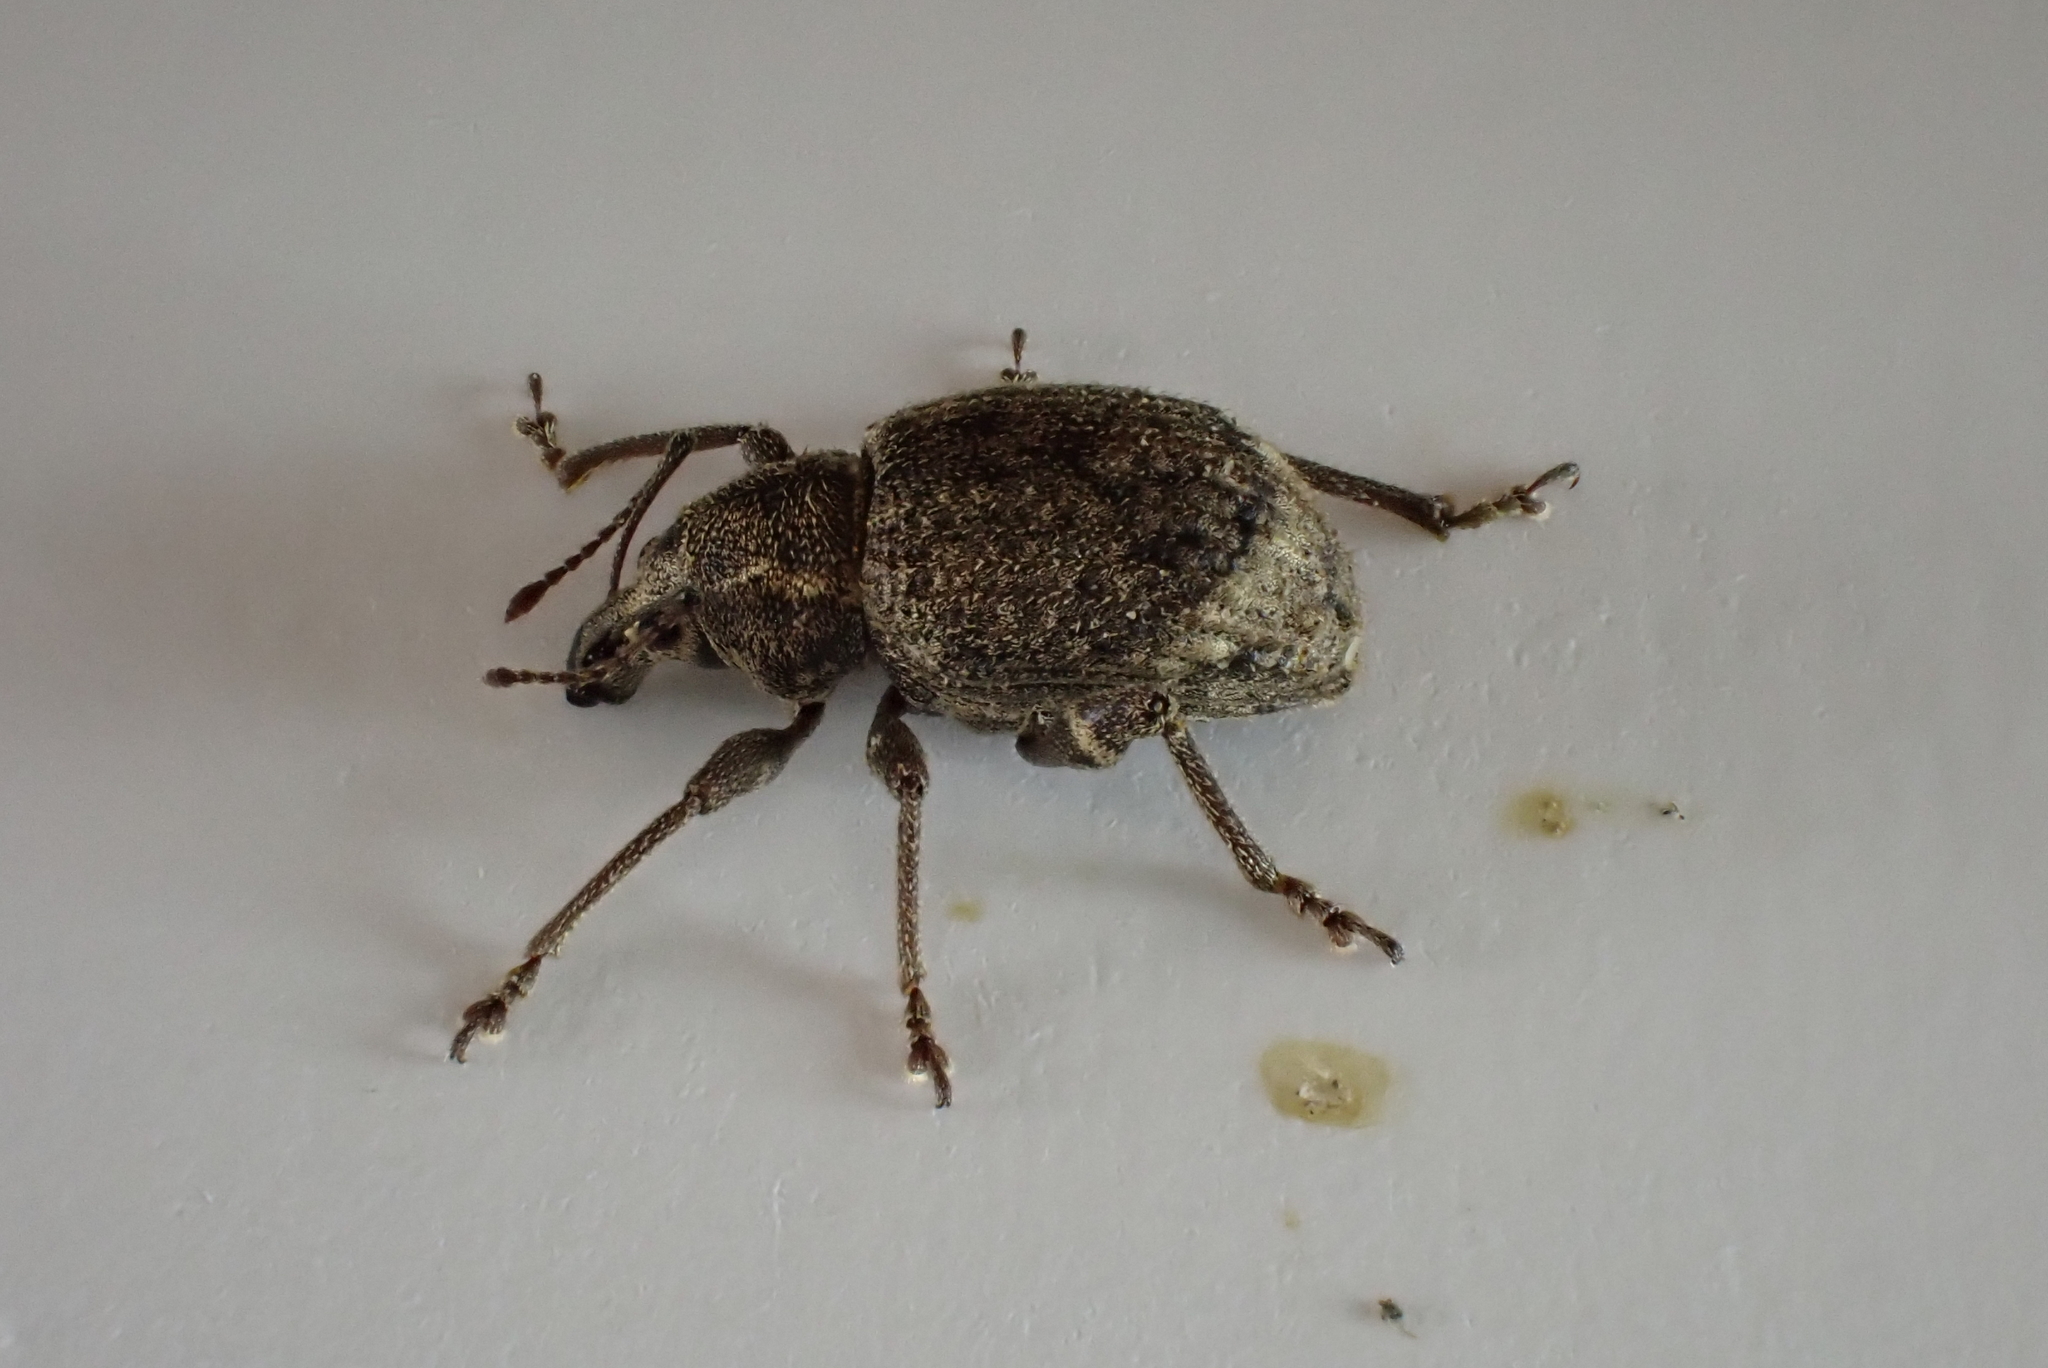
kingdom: Animalia
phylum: Arthropoda
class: Insecta
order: Coleoptera
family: Curculionidae
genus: Phlyctinus
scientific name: Phlyctinus callosus
